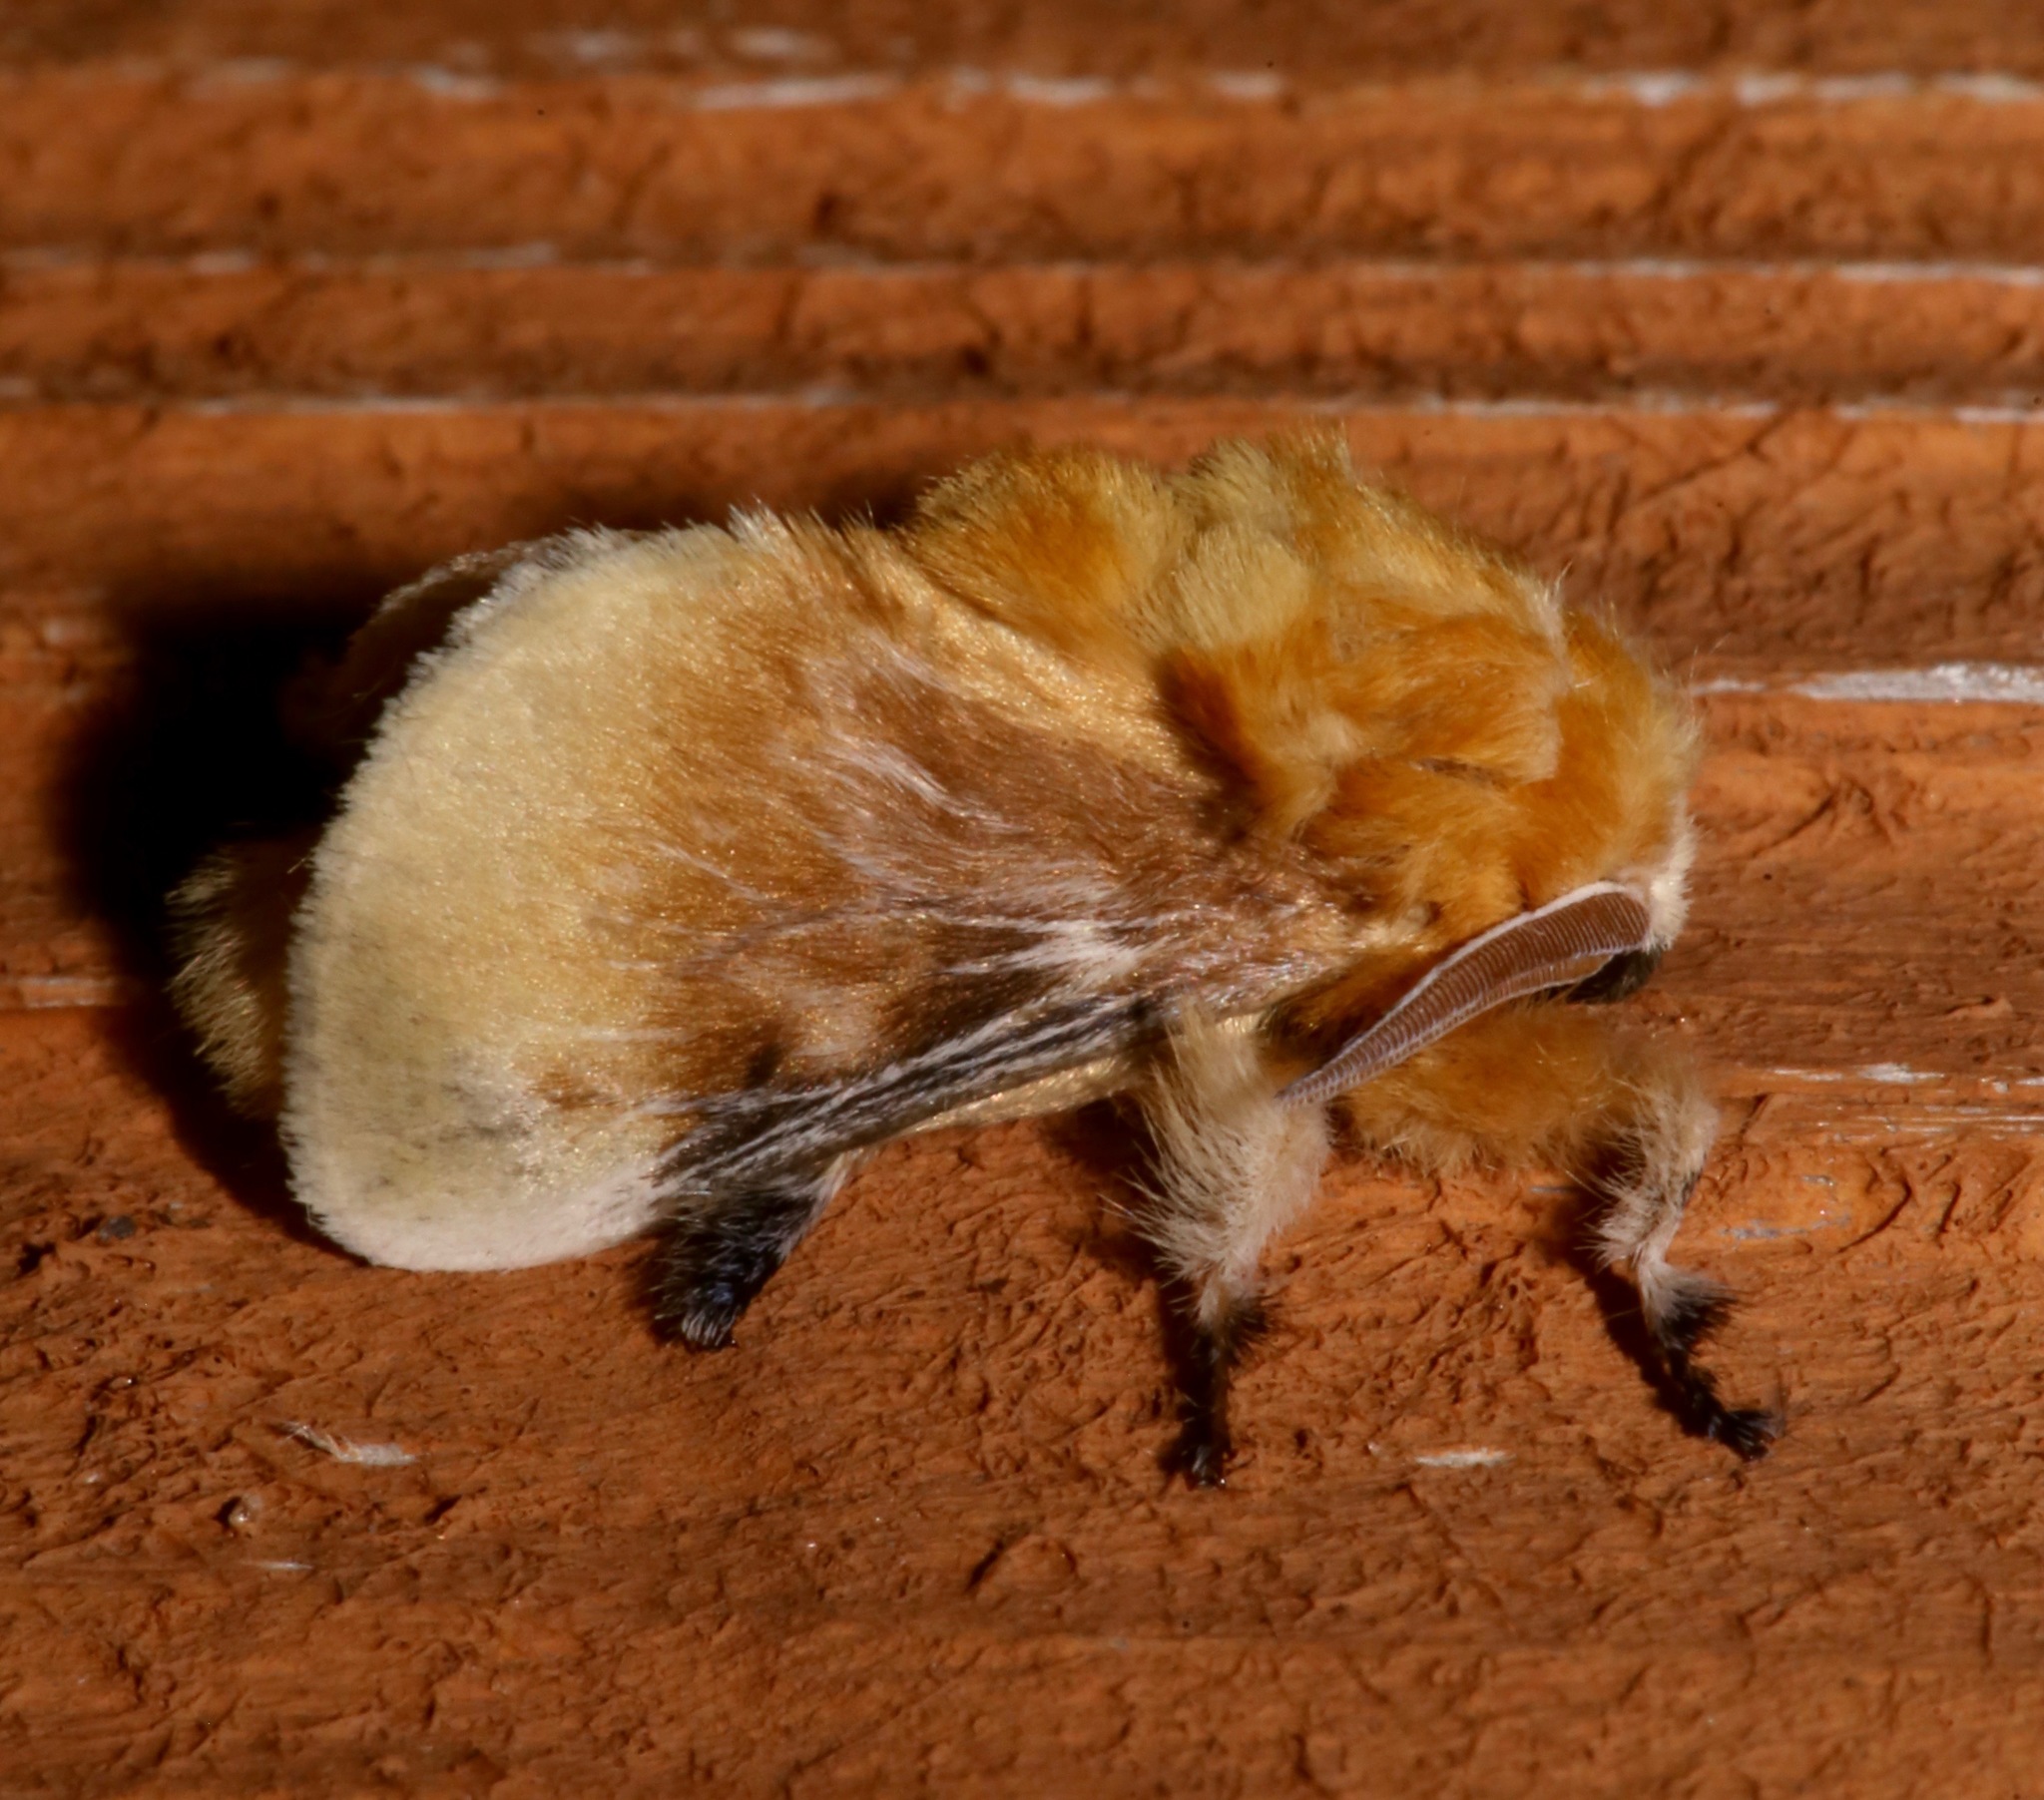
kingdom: Animalia
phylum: Arthropoda
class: Insecta
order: Lepidoptera
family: Megalopygidae
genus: Megalopyge
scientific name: Megalopyge opercularis
